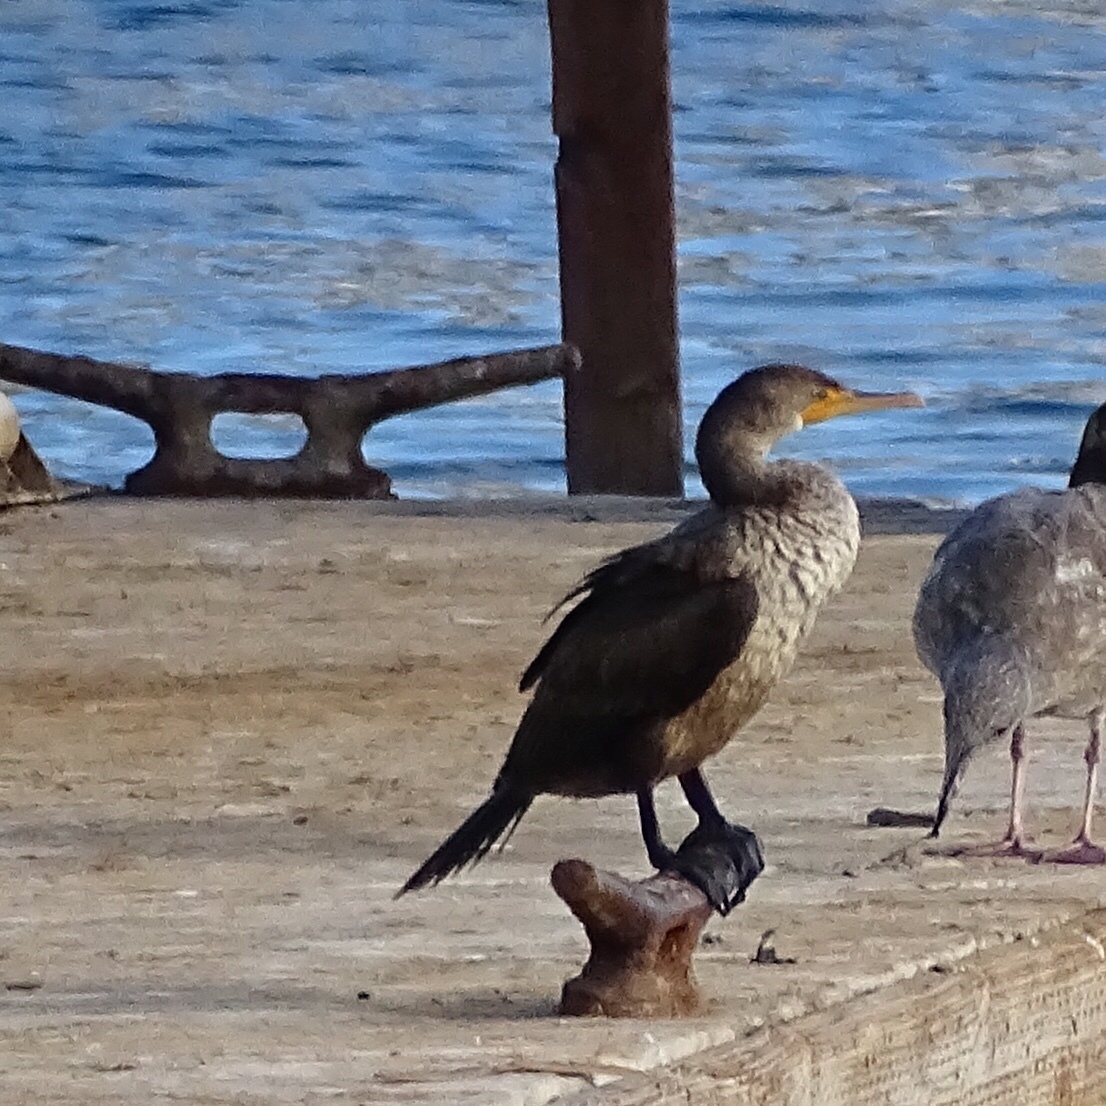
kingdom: Animalia
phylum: Chordata
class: Aves
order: Suliformes
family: Phalacrocoracidae
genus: Phalacrocorax
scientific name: Phalacrocorax auritus
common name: Double-crested cormorant
